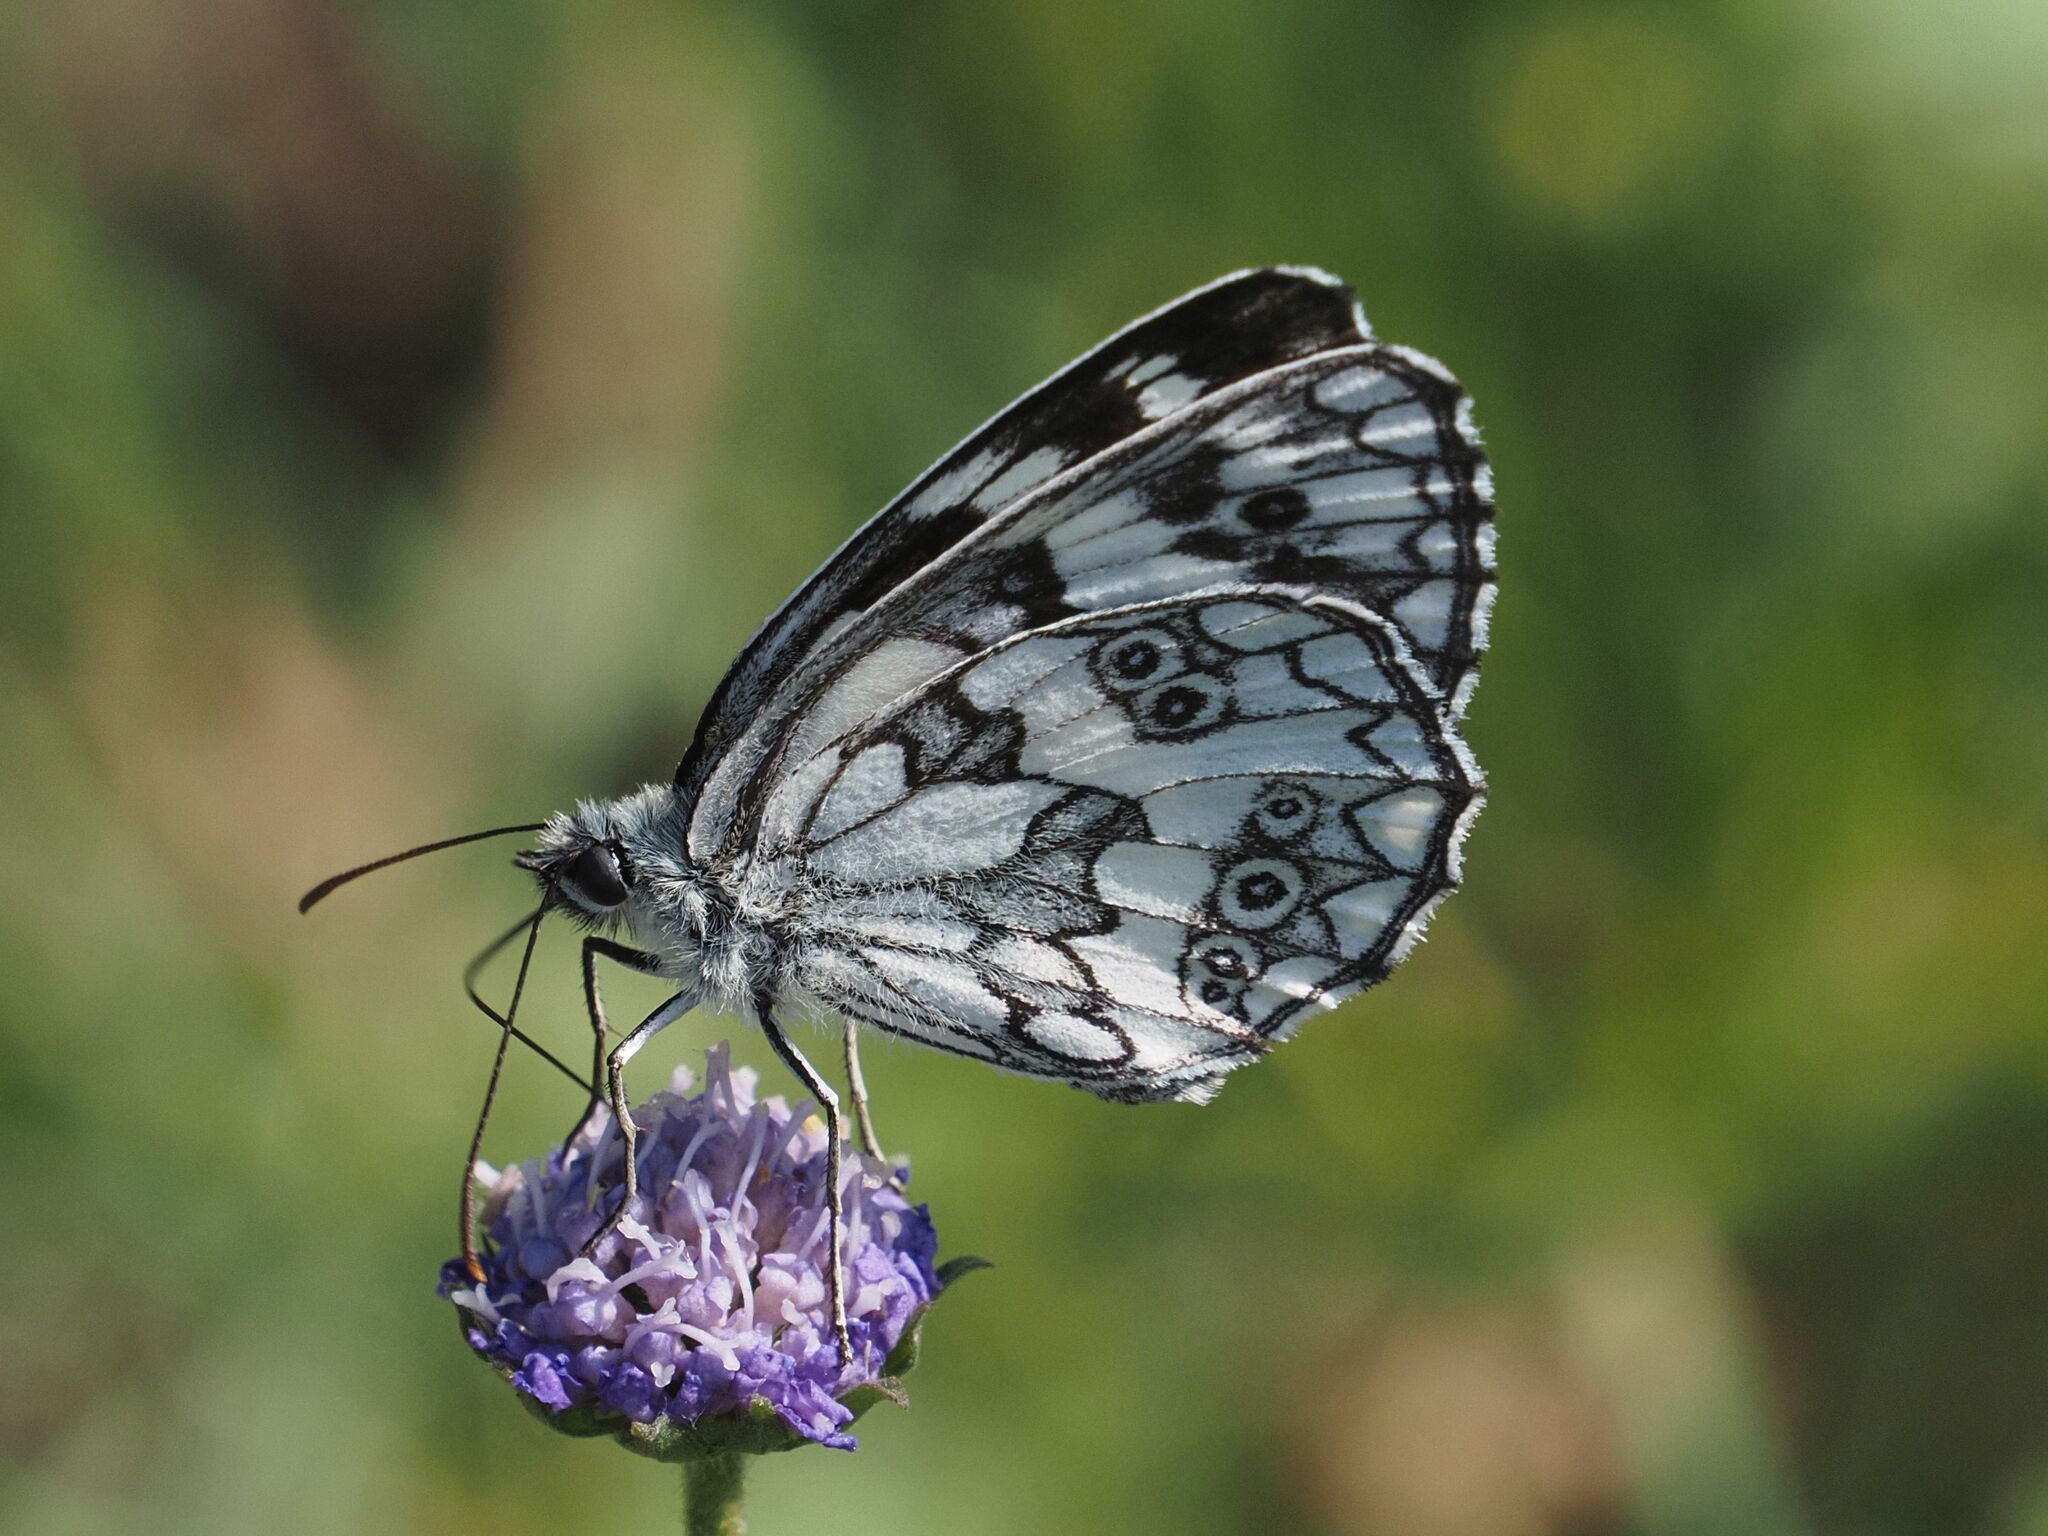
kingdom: Animalia
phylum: Arthropoda
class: Insecta
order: Lepidoptera
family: Nymphalidae
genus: Melanargia
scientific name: Melanargia galathea
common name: Marbled white
